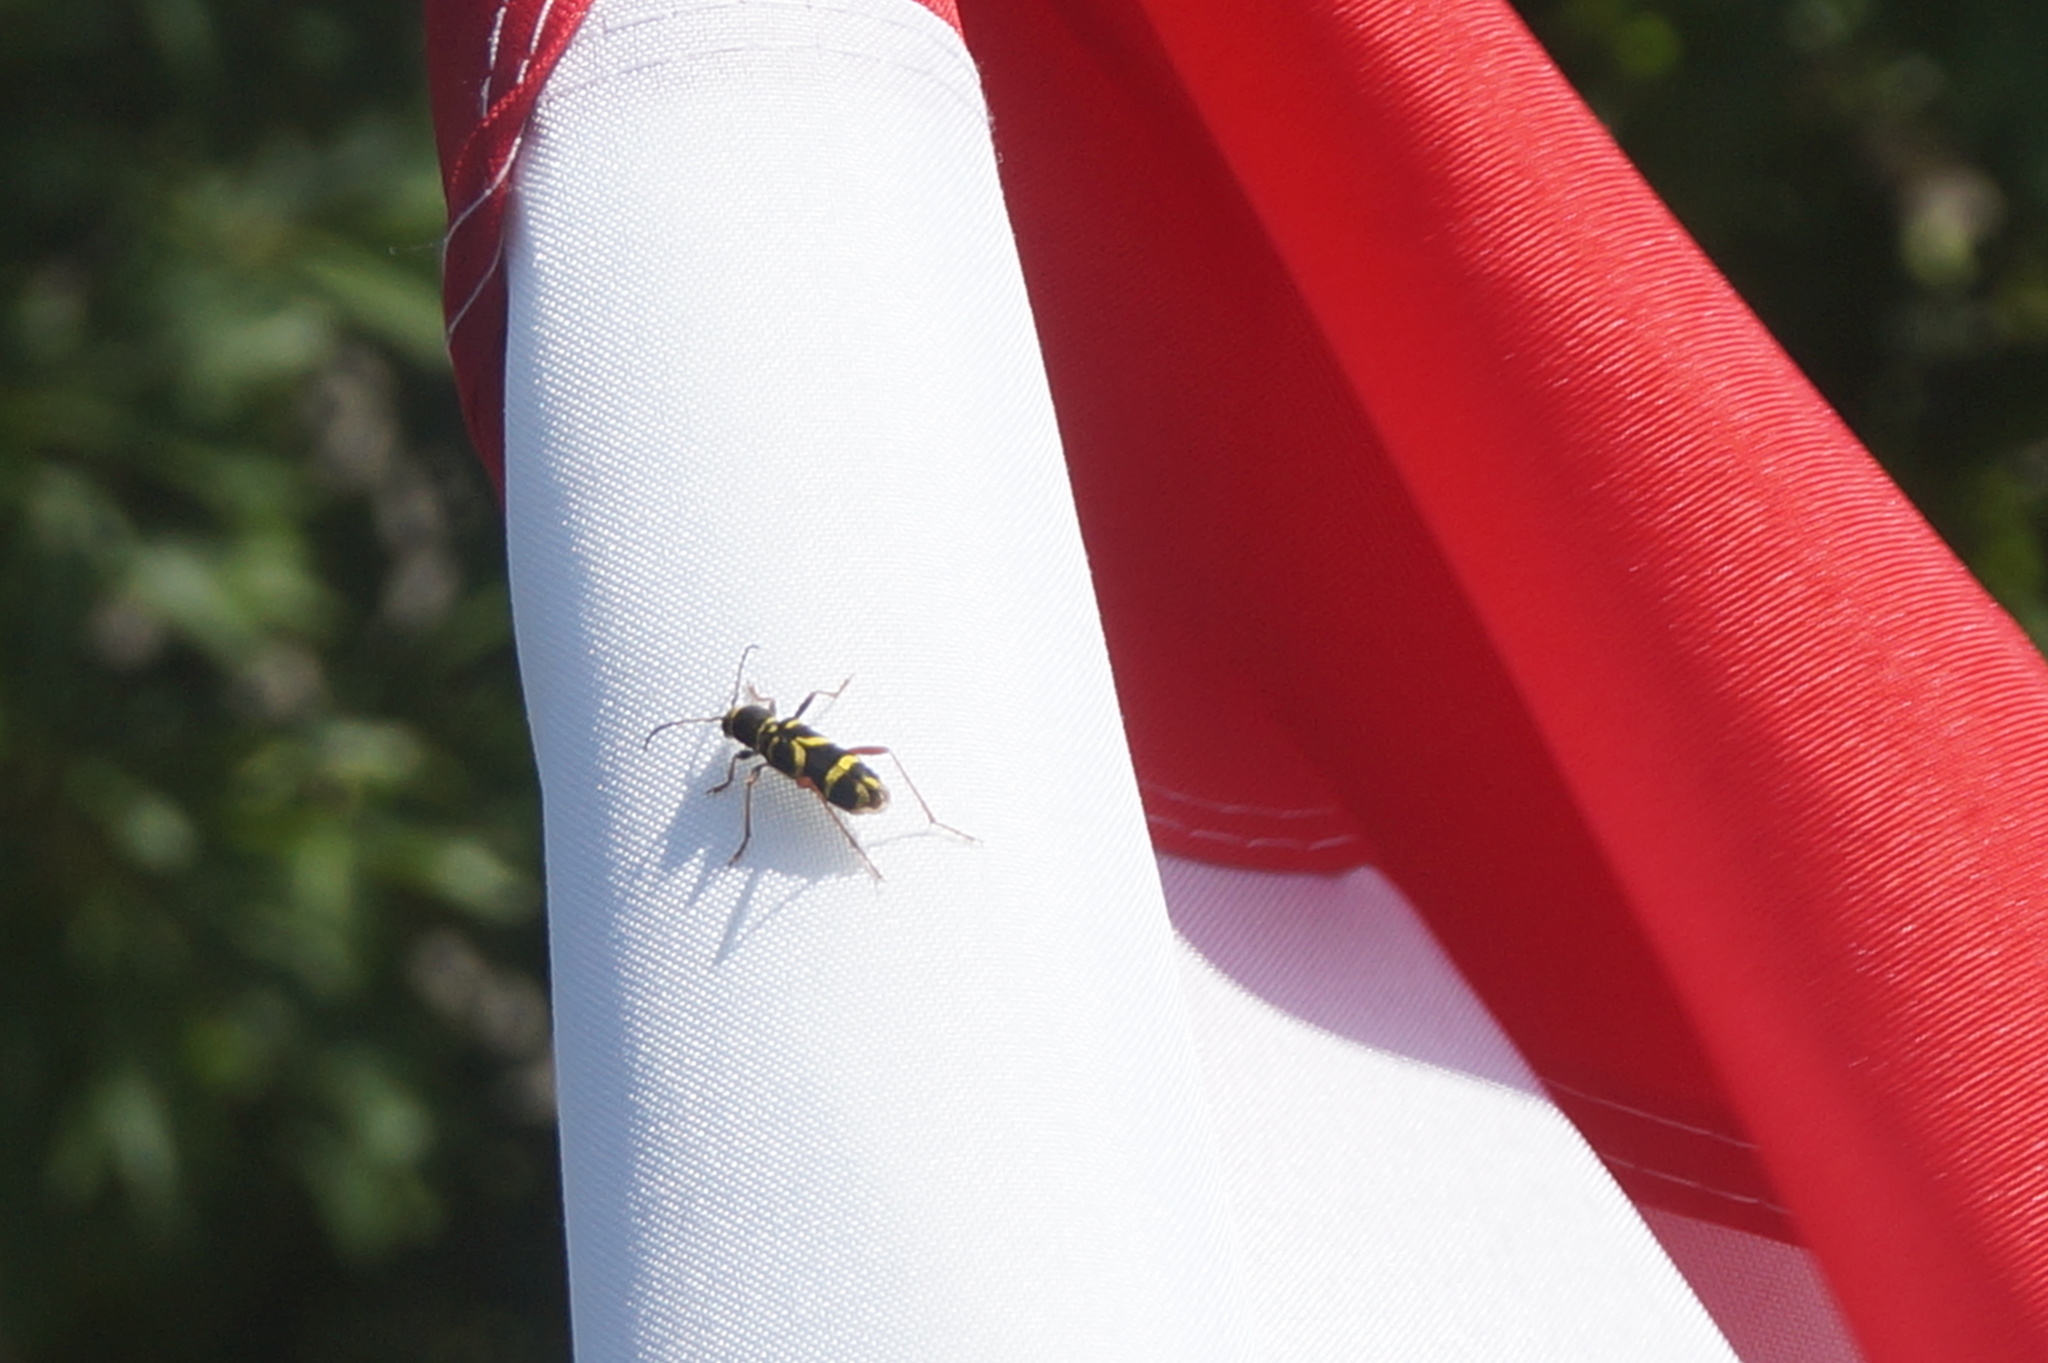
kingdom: Animalia
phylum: Arthropoda
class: Insecta
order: Coleoptera
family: Cerambycidae
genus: Clytus
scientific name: Clytus arietis
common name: Wasp beetle
